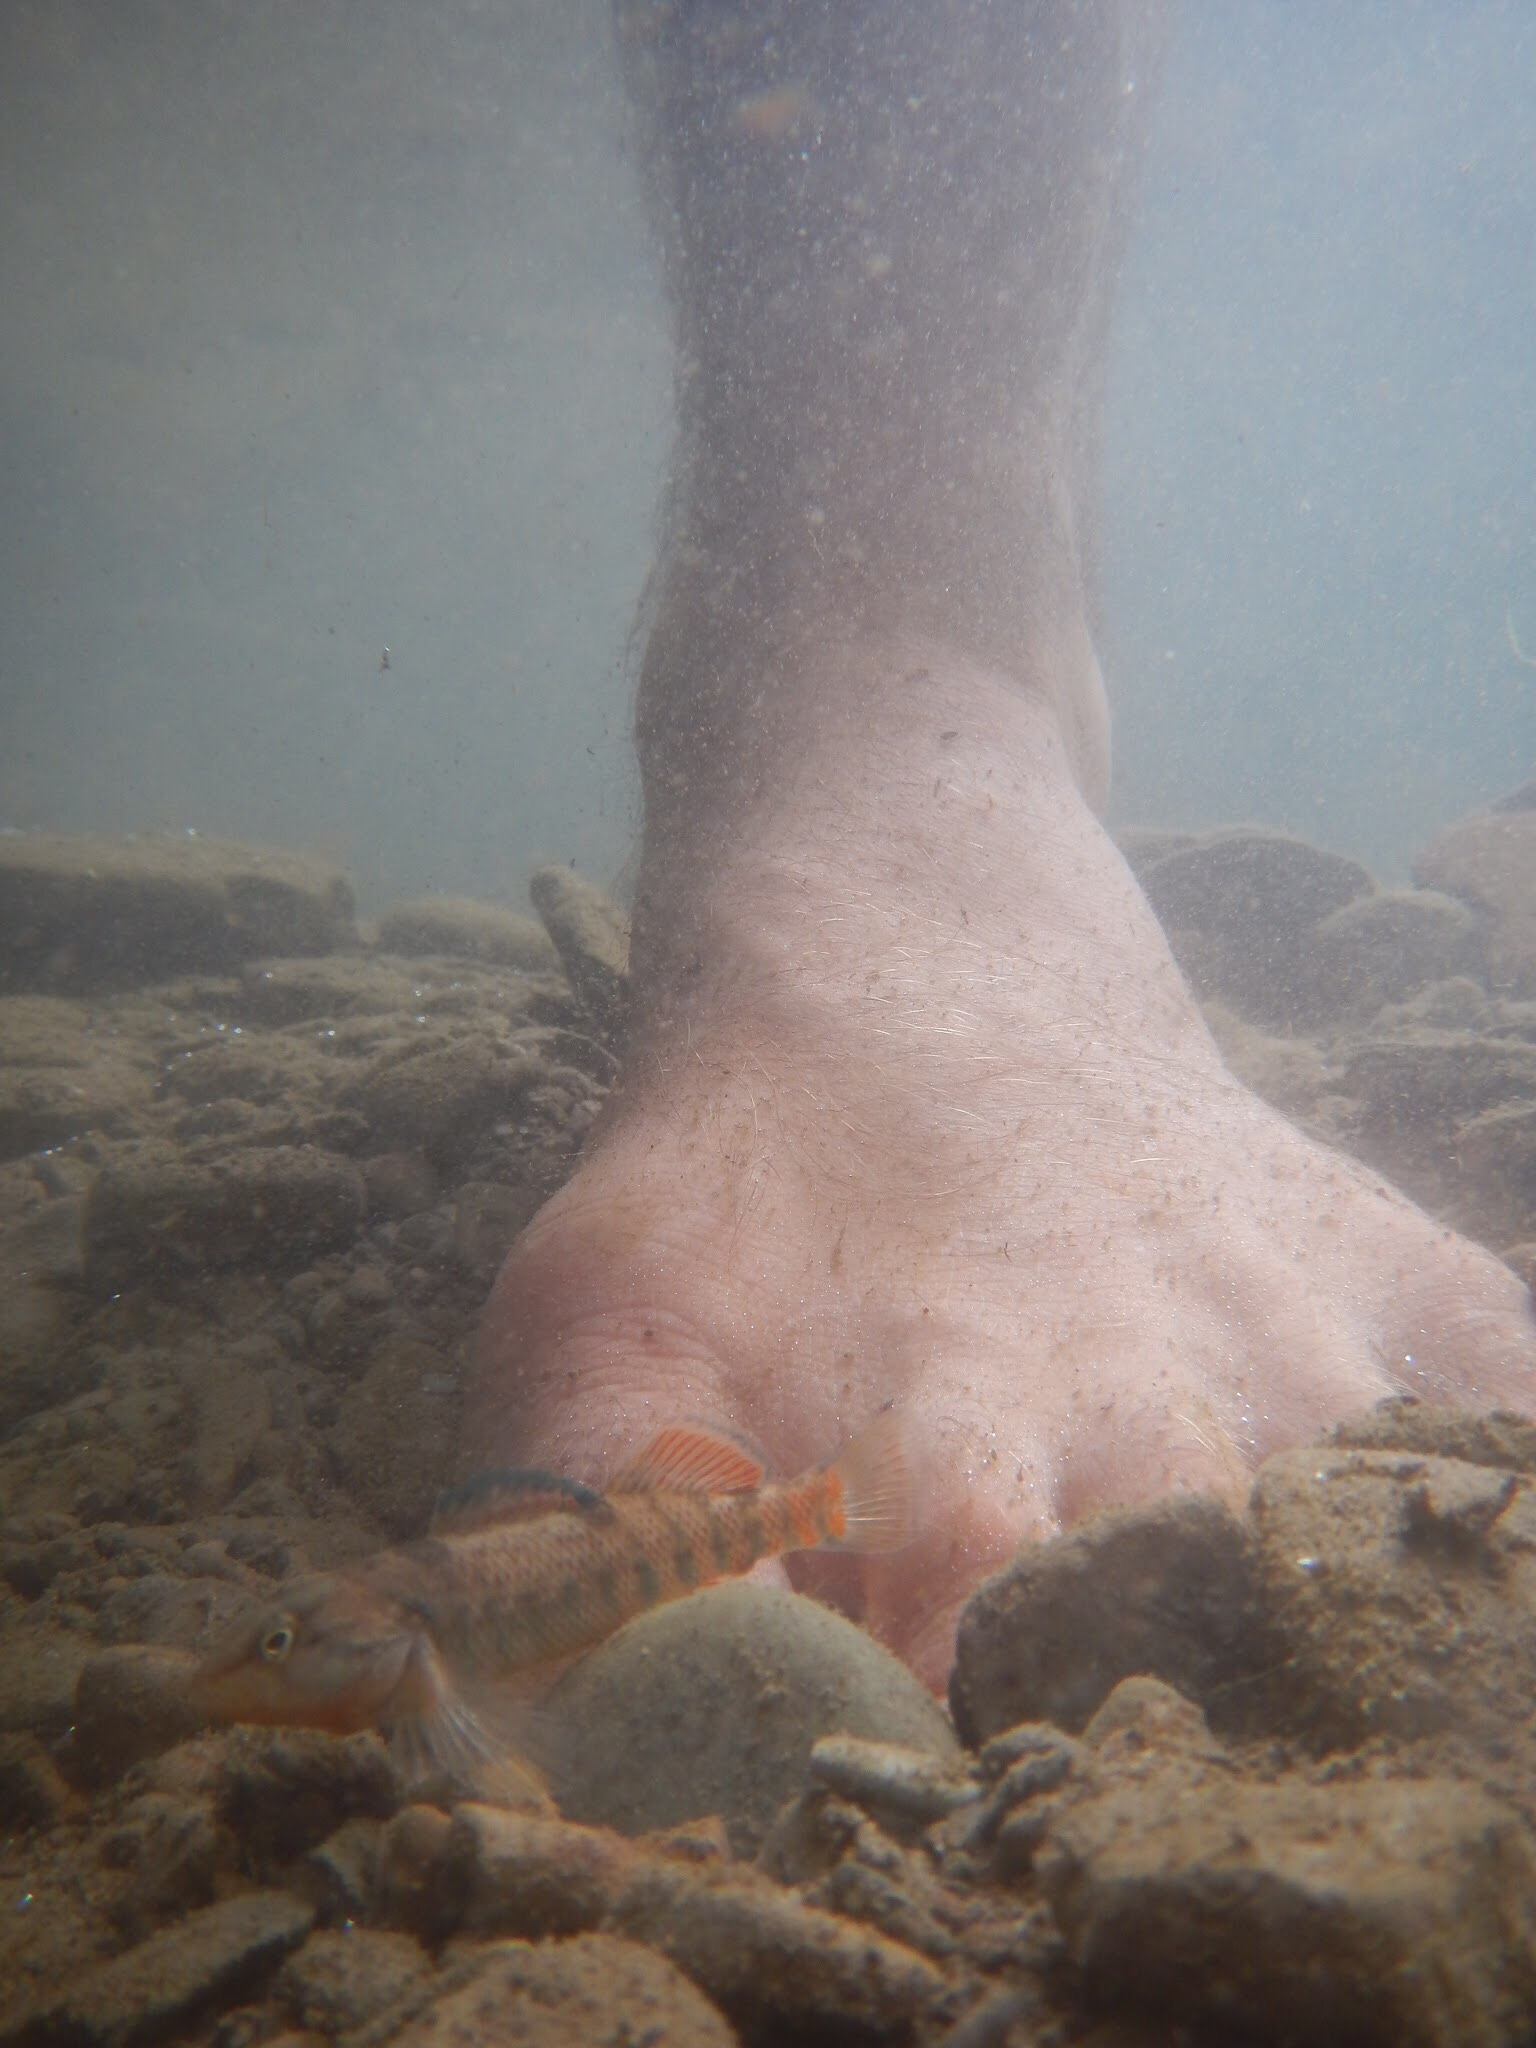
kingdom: Animalia
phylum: Chordata
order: Perciformes
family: Percidae
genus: Etheostoma
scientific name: Etheostoma caeruleum
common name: Rainbow darter
